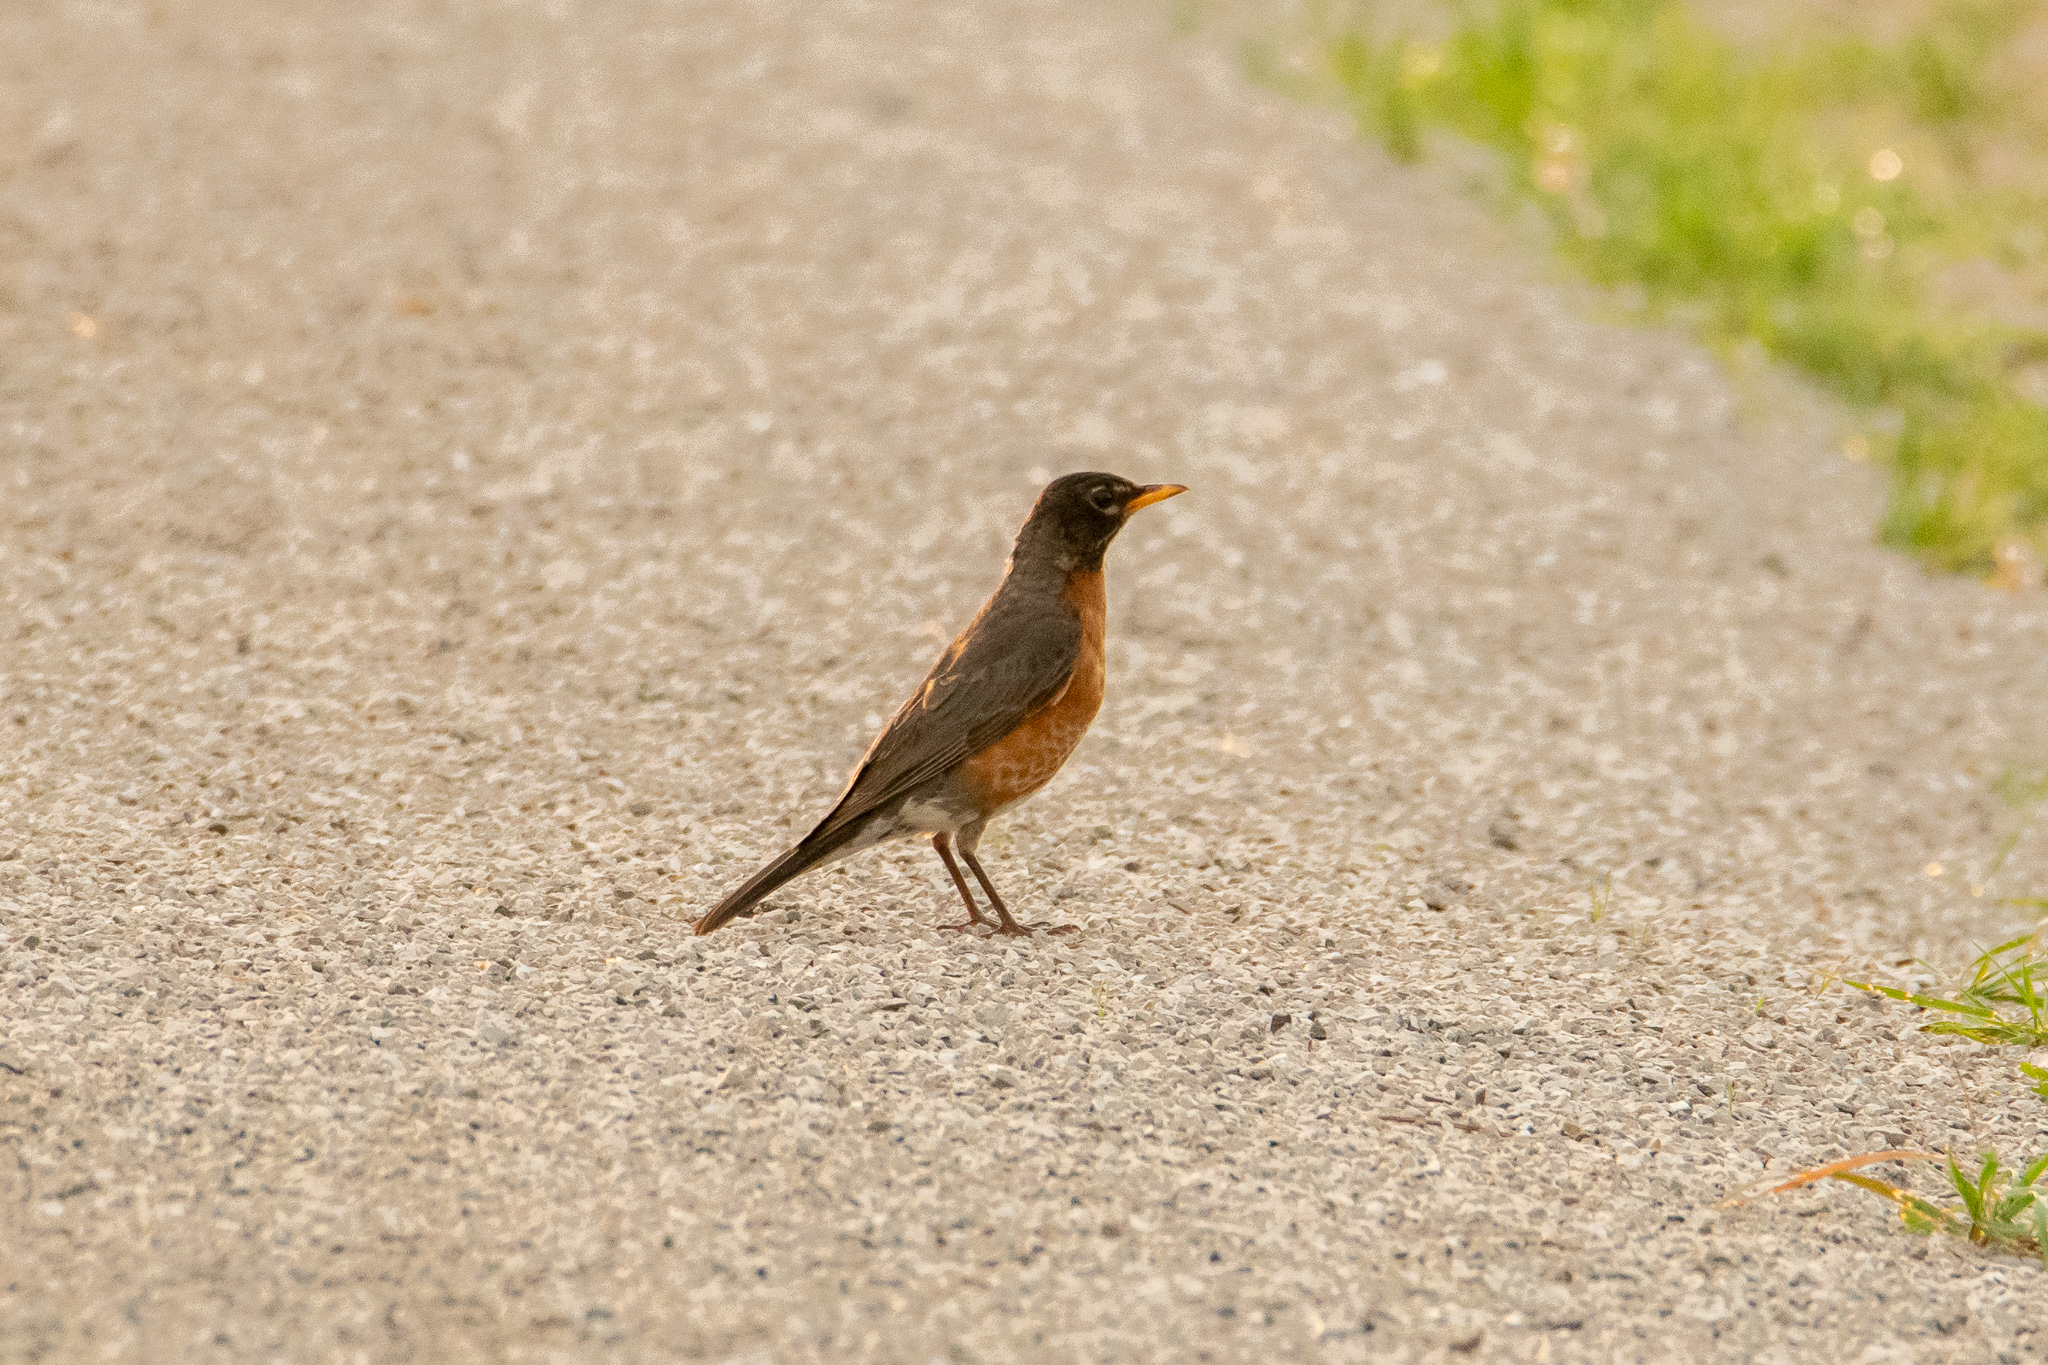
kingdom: Animalia
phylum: Chordata
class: Aves
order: Passeriformes
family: Turdidae
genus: Turdus
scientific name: Turdus migratorius
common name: American robin
